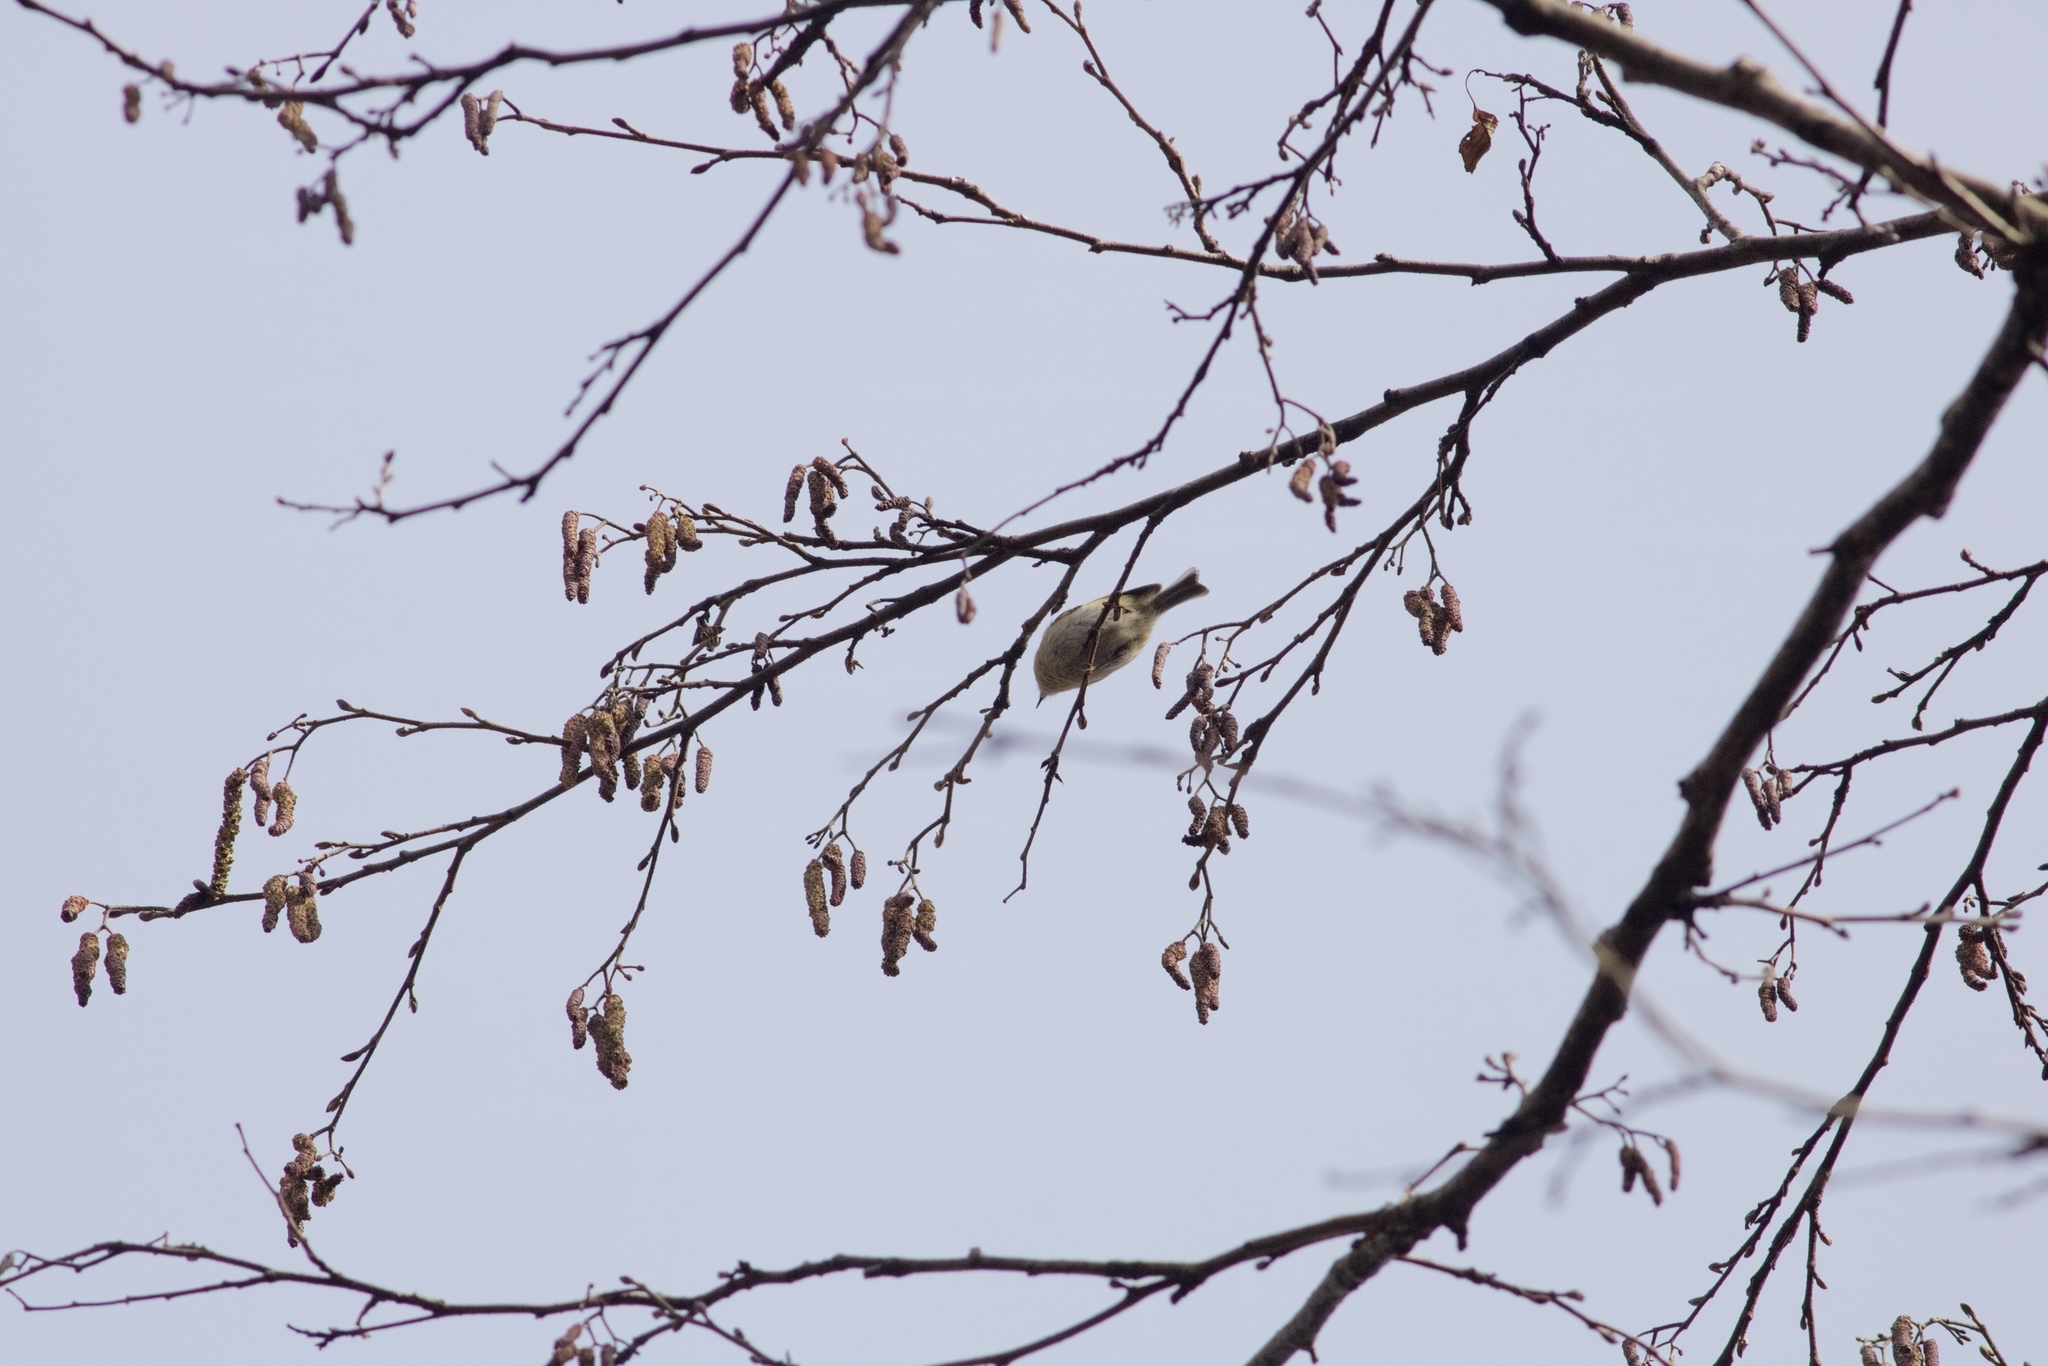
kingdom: Animalia
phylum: Chordata
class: Aves
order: Passeriformes
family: Regulidae
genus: Regulus
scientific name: Regulus regulus
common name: Goldcrest
